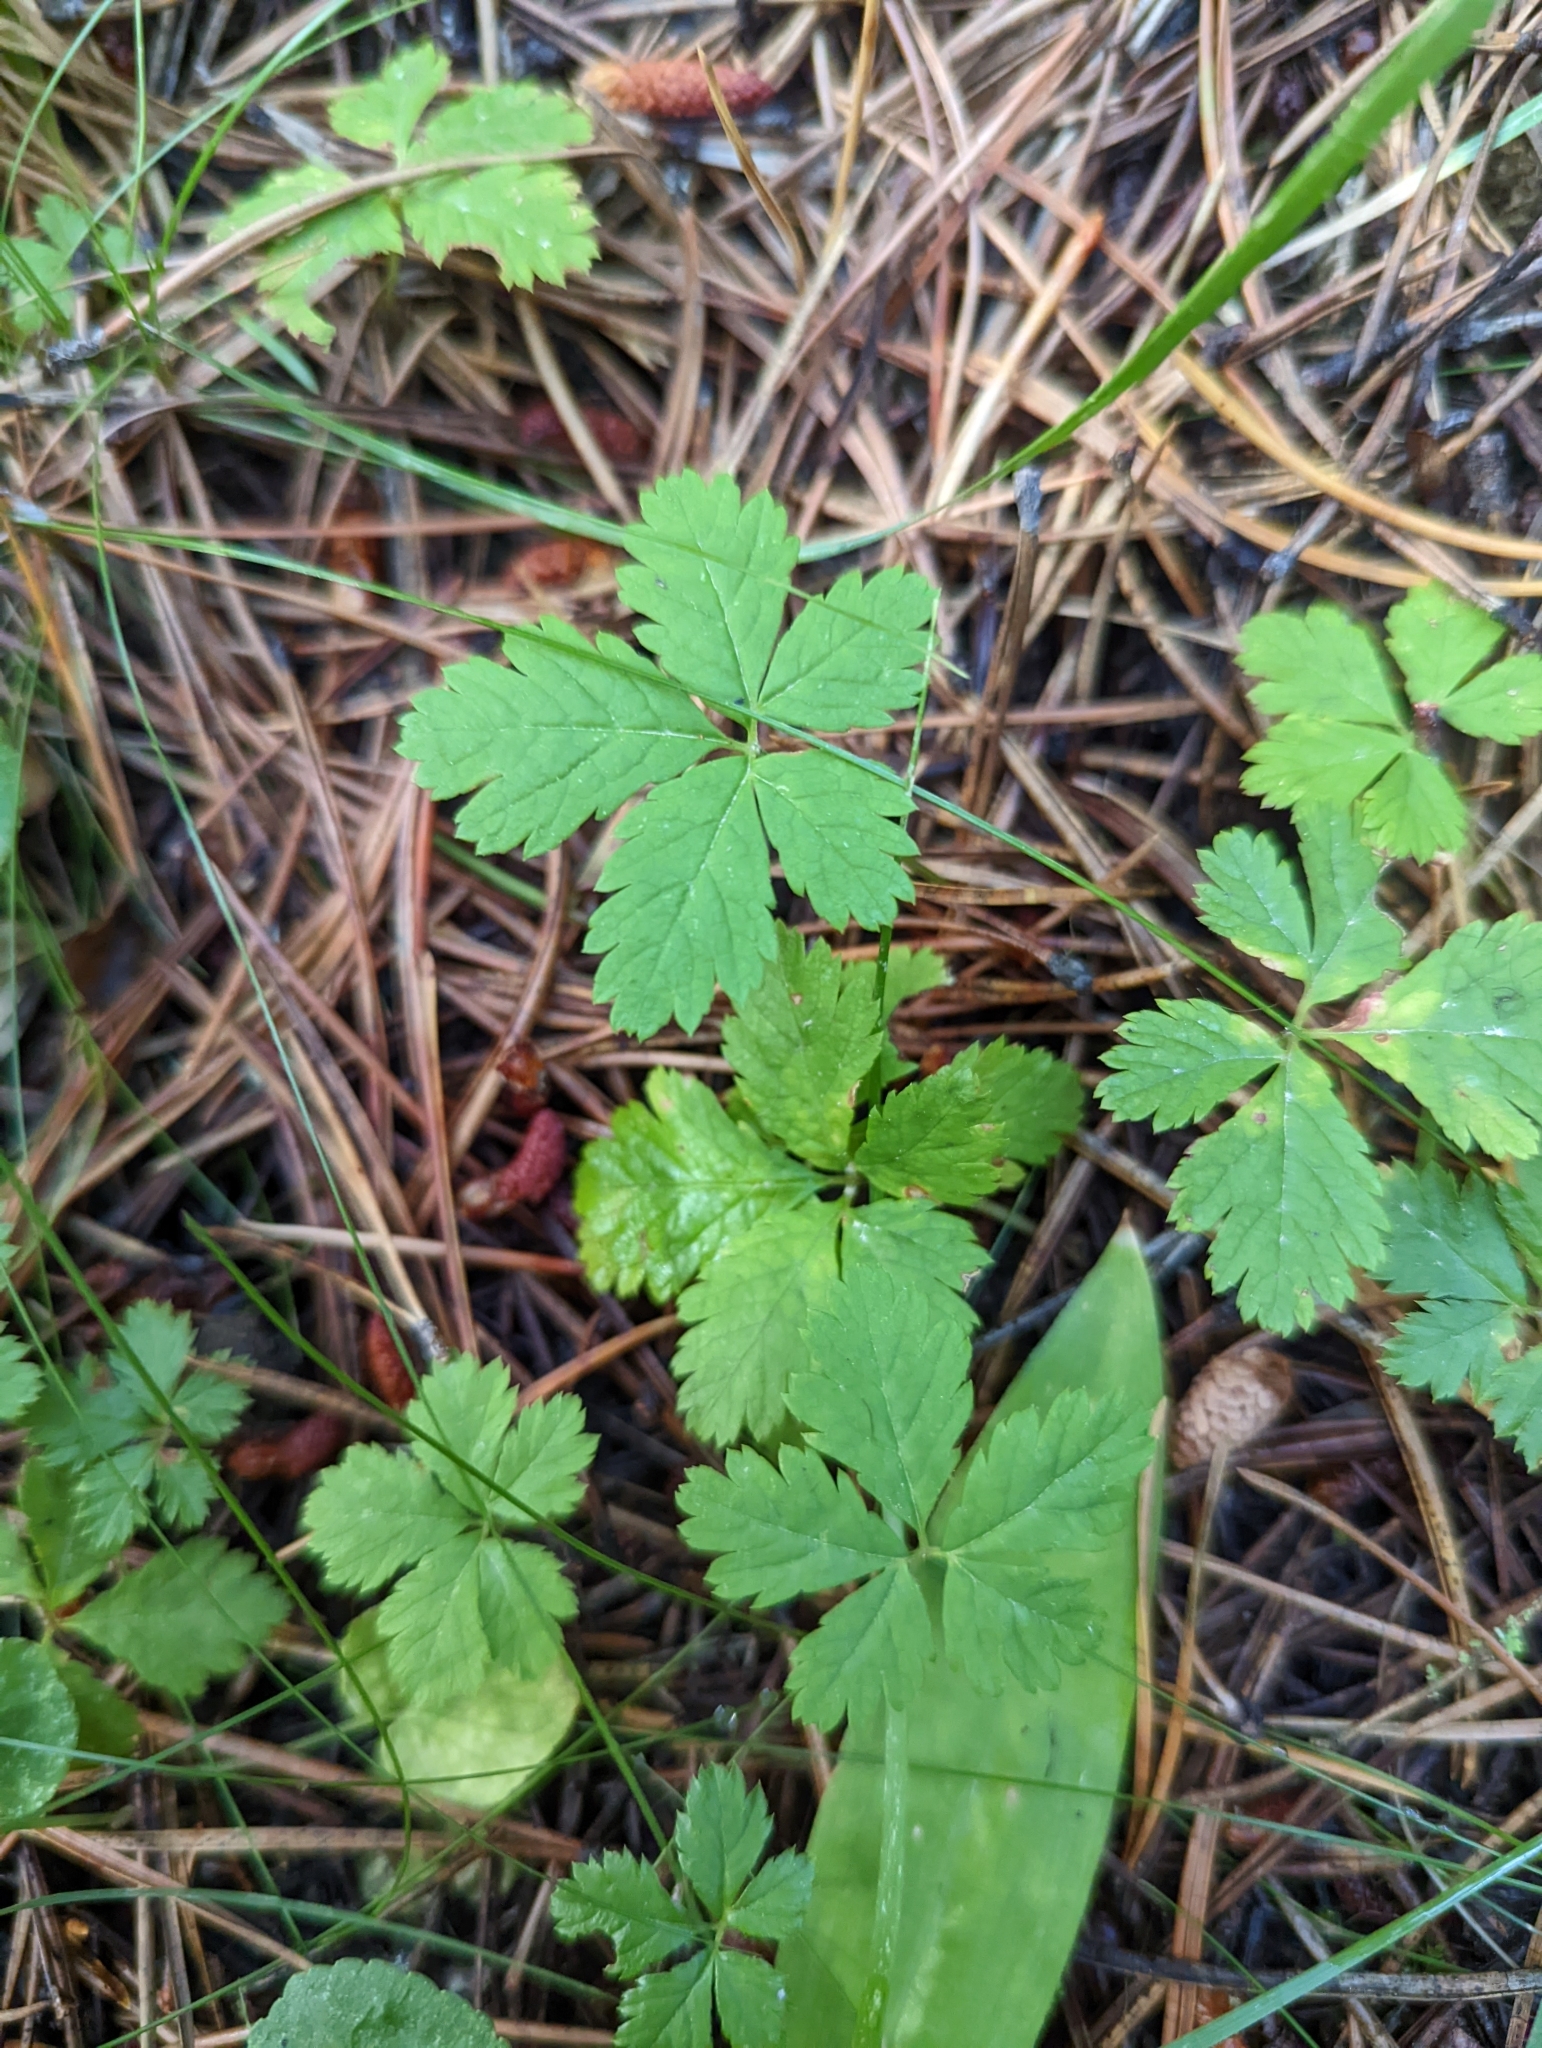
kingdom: Plantae
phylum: Tracheophyta
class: Magnoliopsida
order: Rosales
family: Rosaceae
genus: Rubus
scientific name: Rubus pedatus
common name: Creeping raspberry
